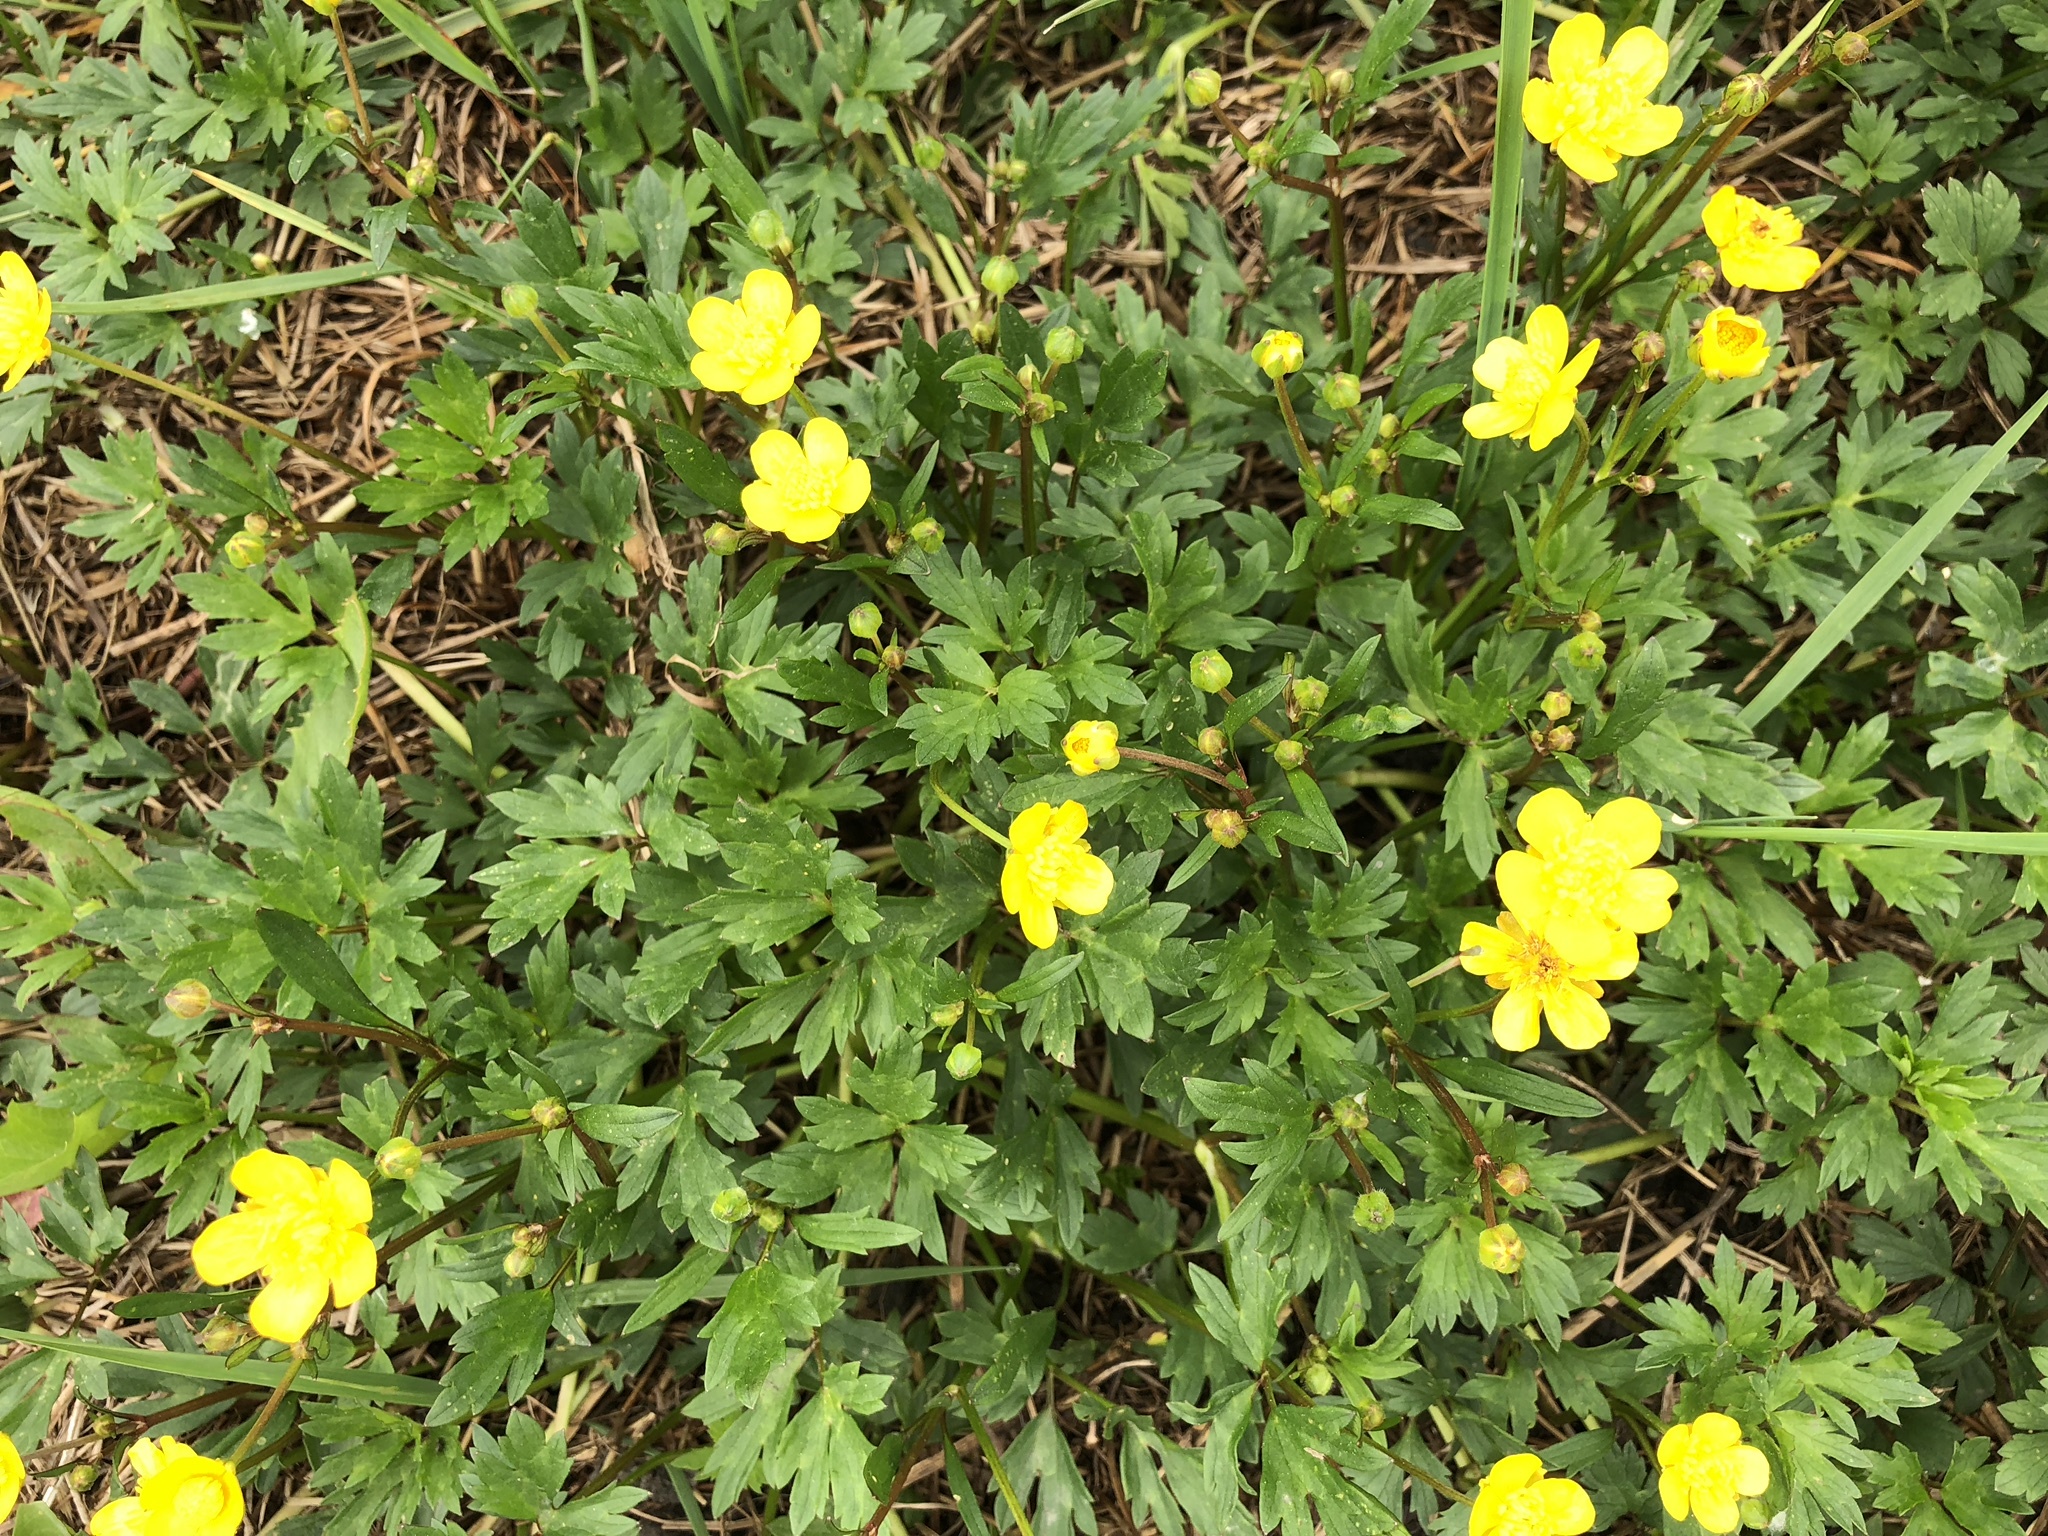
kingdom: Plantae
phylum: Tracheophyta
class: Magnoliopsida
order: Ranunculales
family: Ranunculaceae
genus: Ranunculus
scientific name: Ranunculus repens
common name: Creeping buttercup
